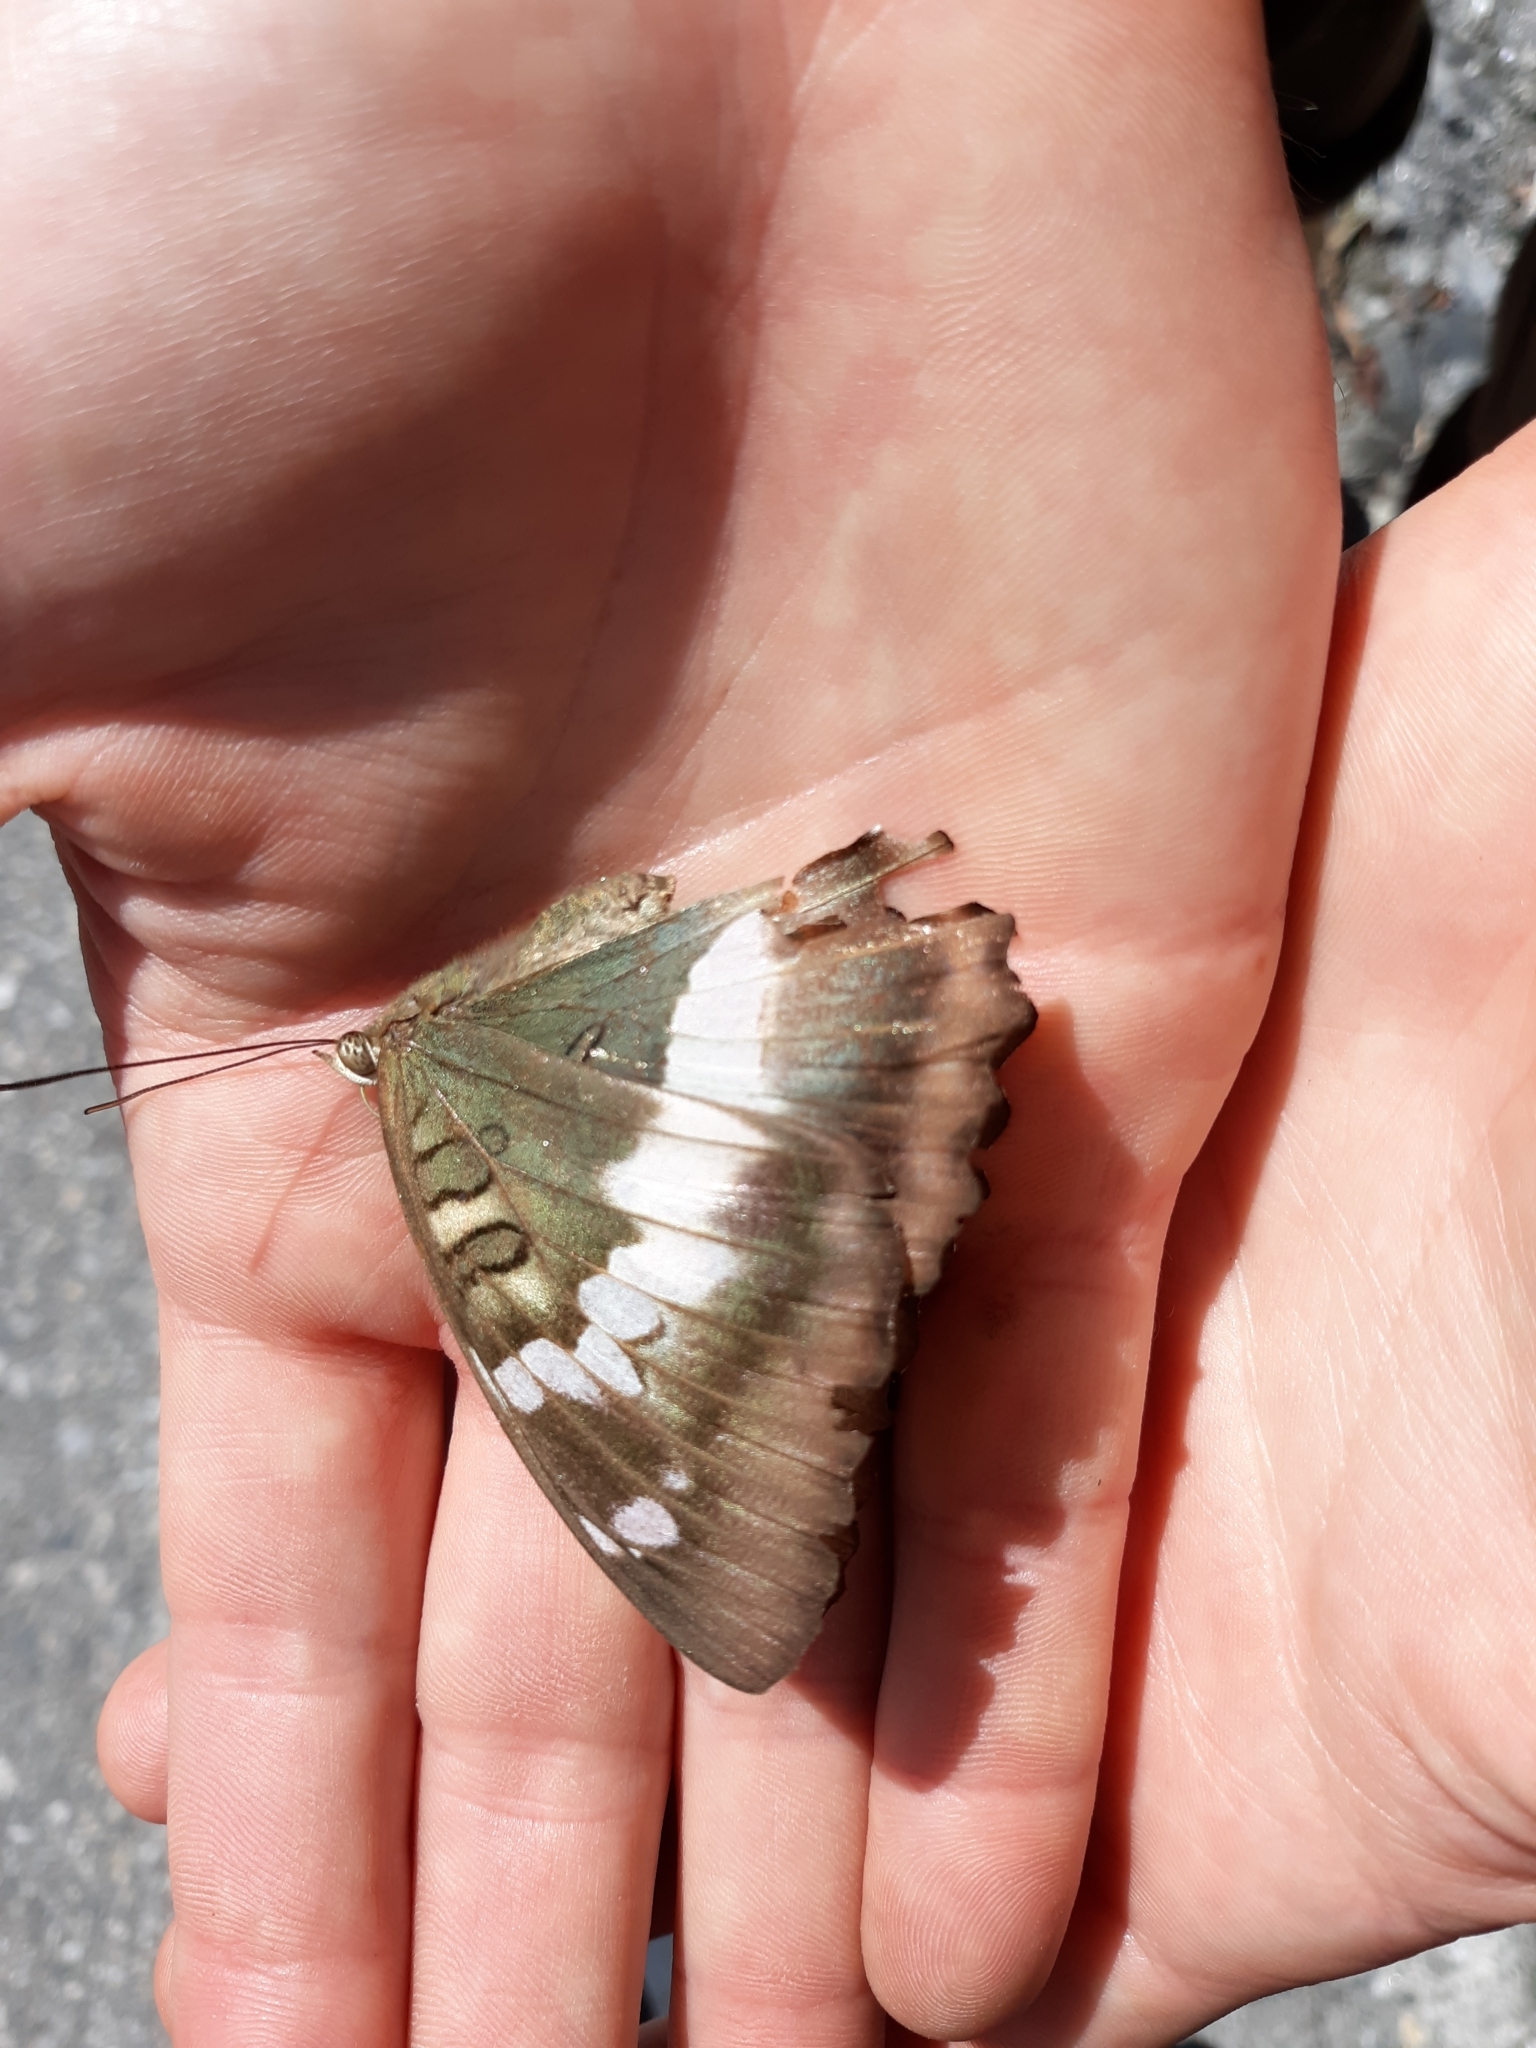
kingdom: Animalia
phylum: Arthropoda
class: Insecta
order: Lepidoptera
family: Nymphalidae
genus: Euthalia
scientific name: Euthalia formosana
